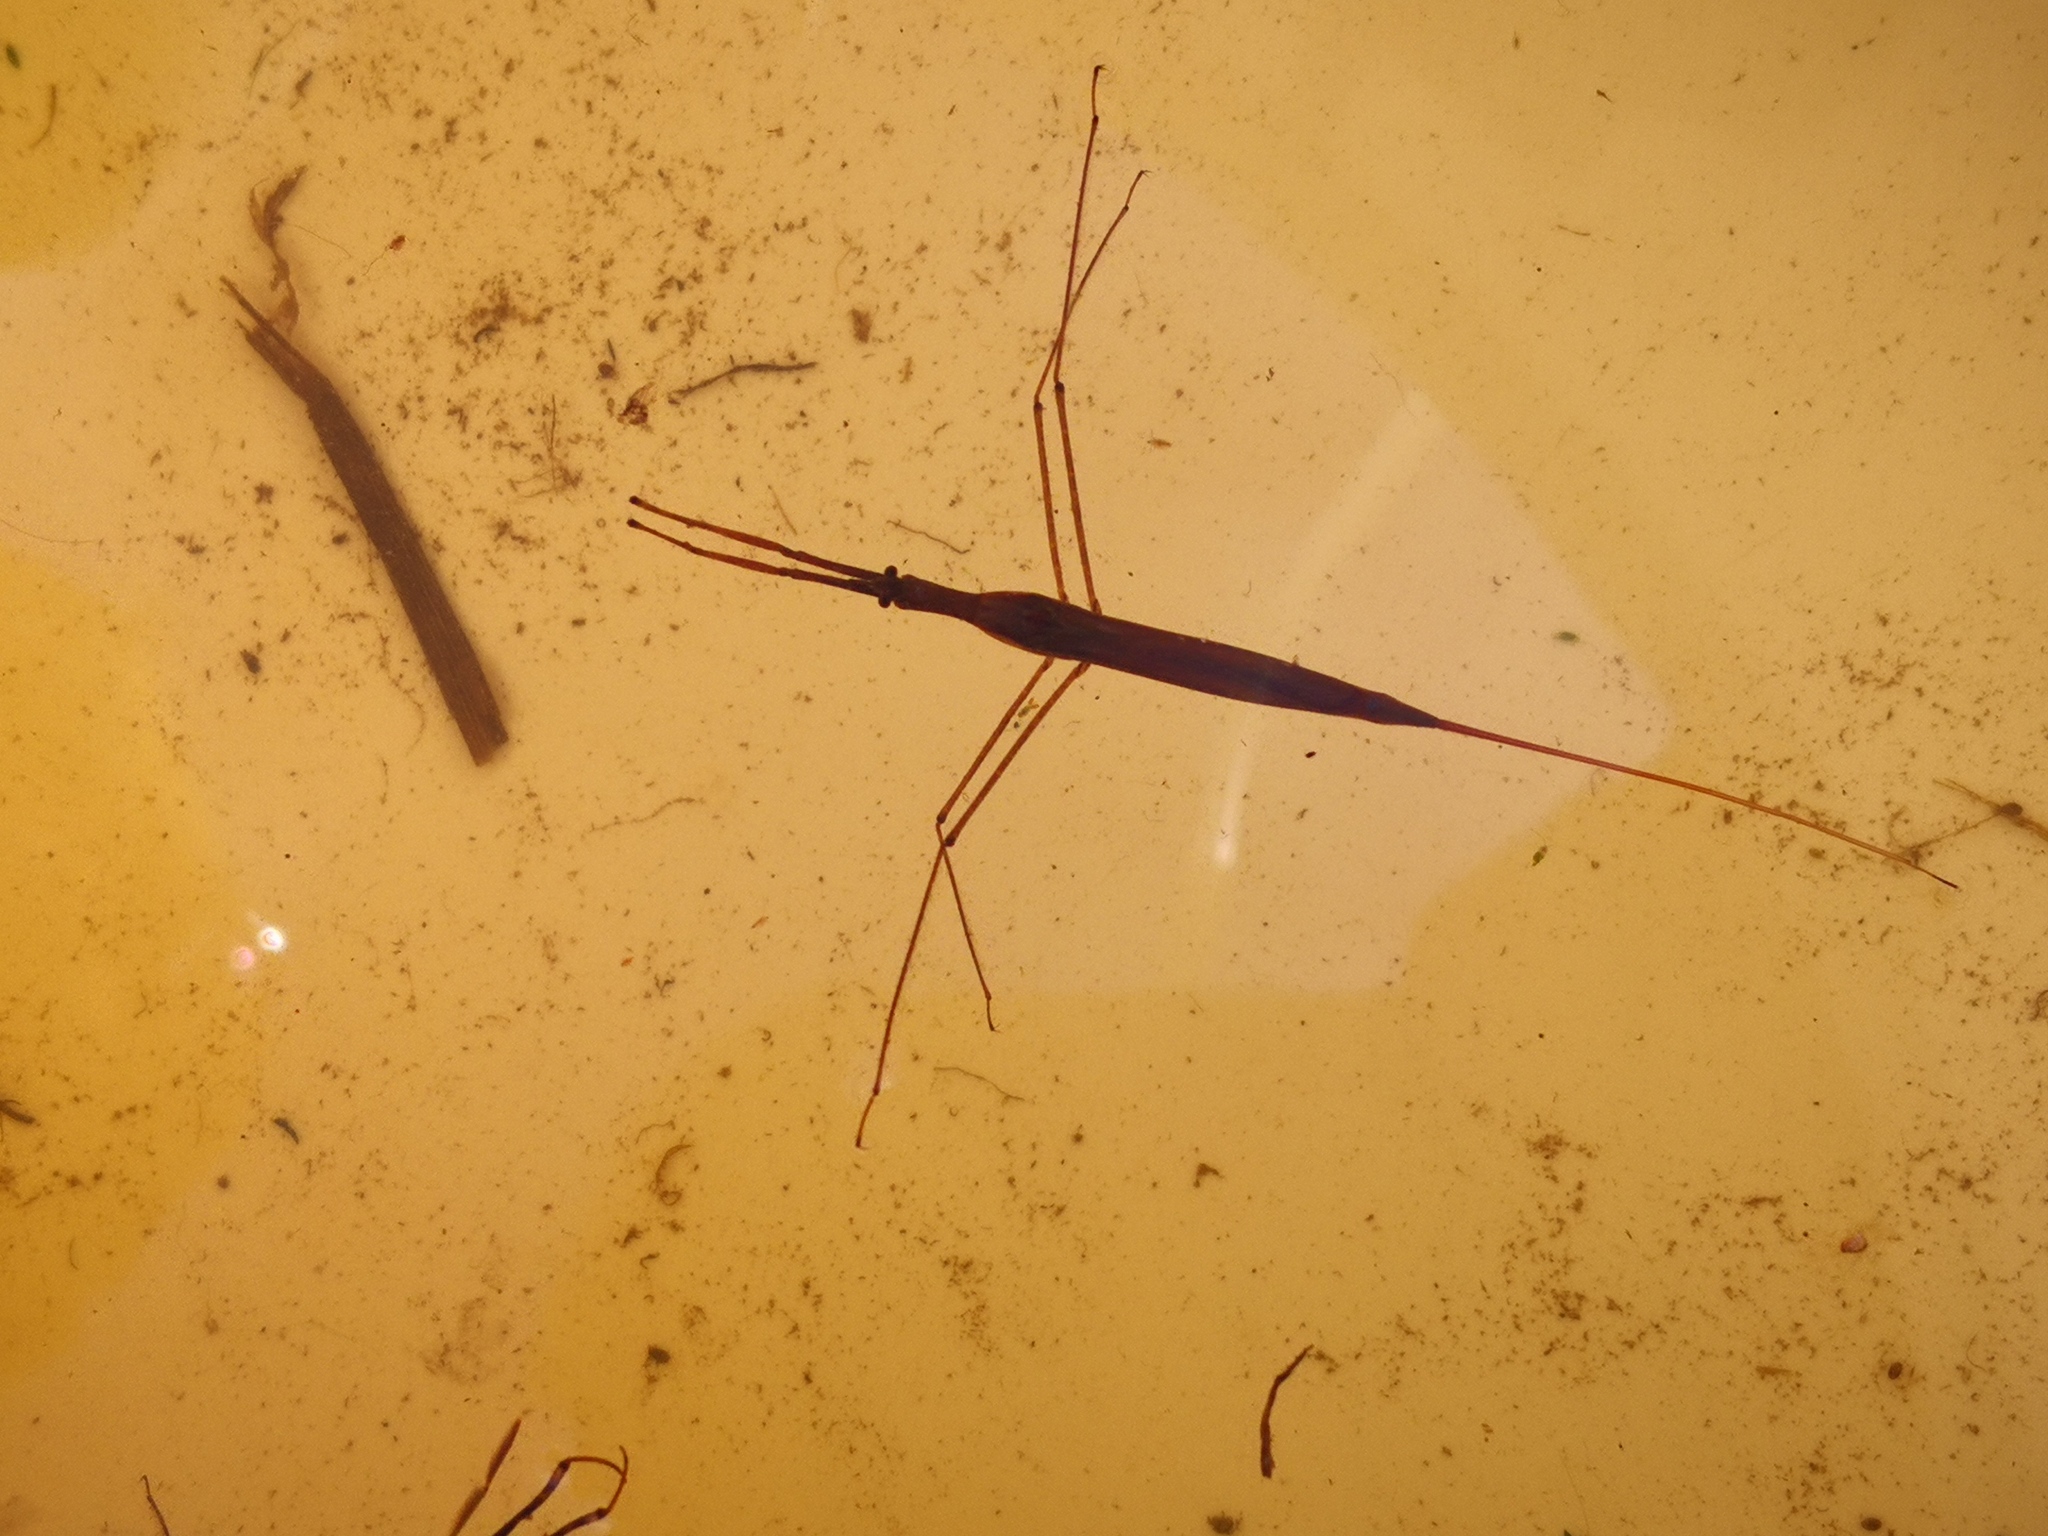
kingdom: Animalia
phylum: Arthropoda
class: Insecta
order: Hemiptera
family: Nepidae
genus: Ranatra
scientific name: Ranatra linearis
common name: Water stick insect
